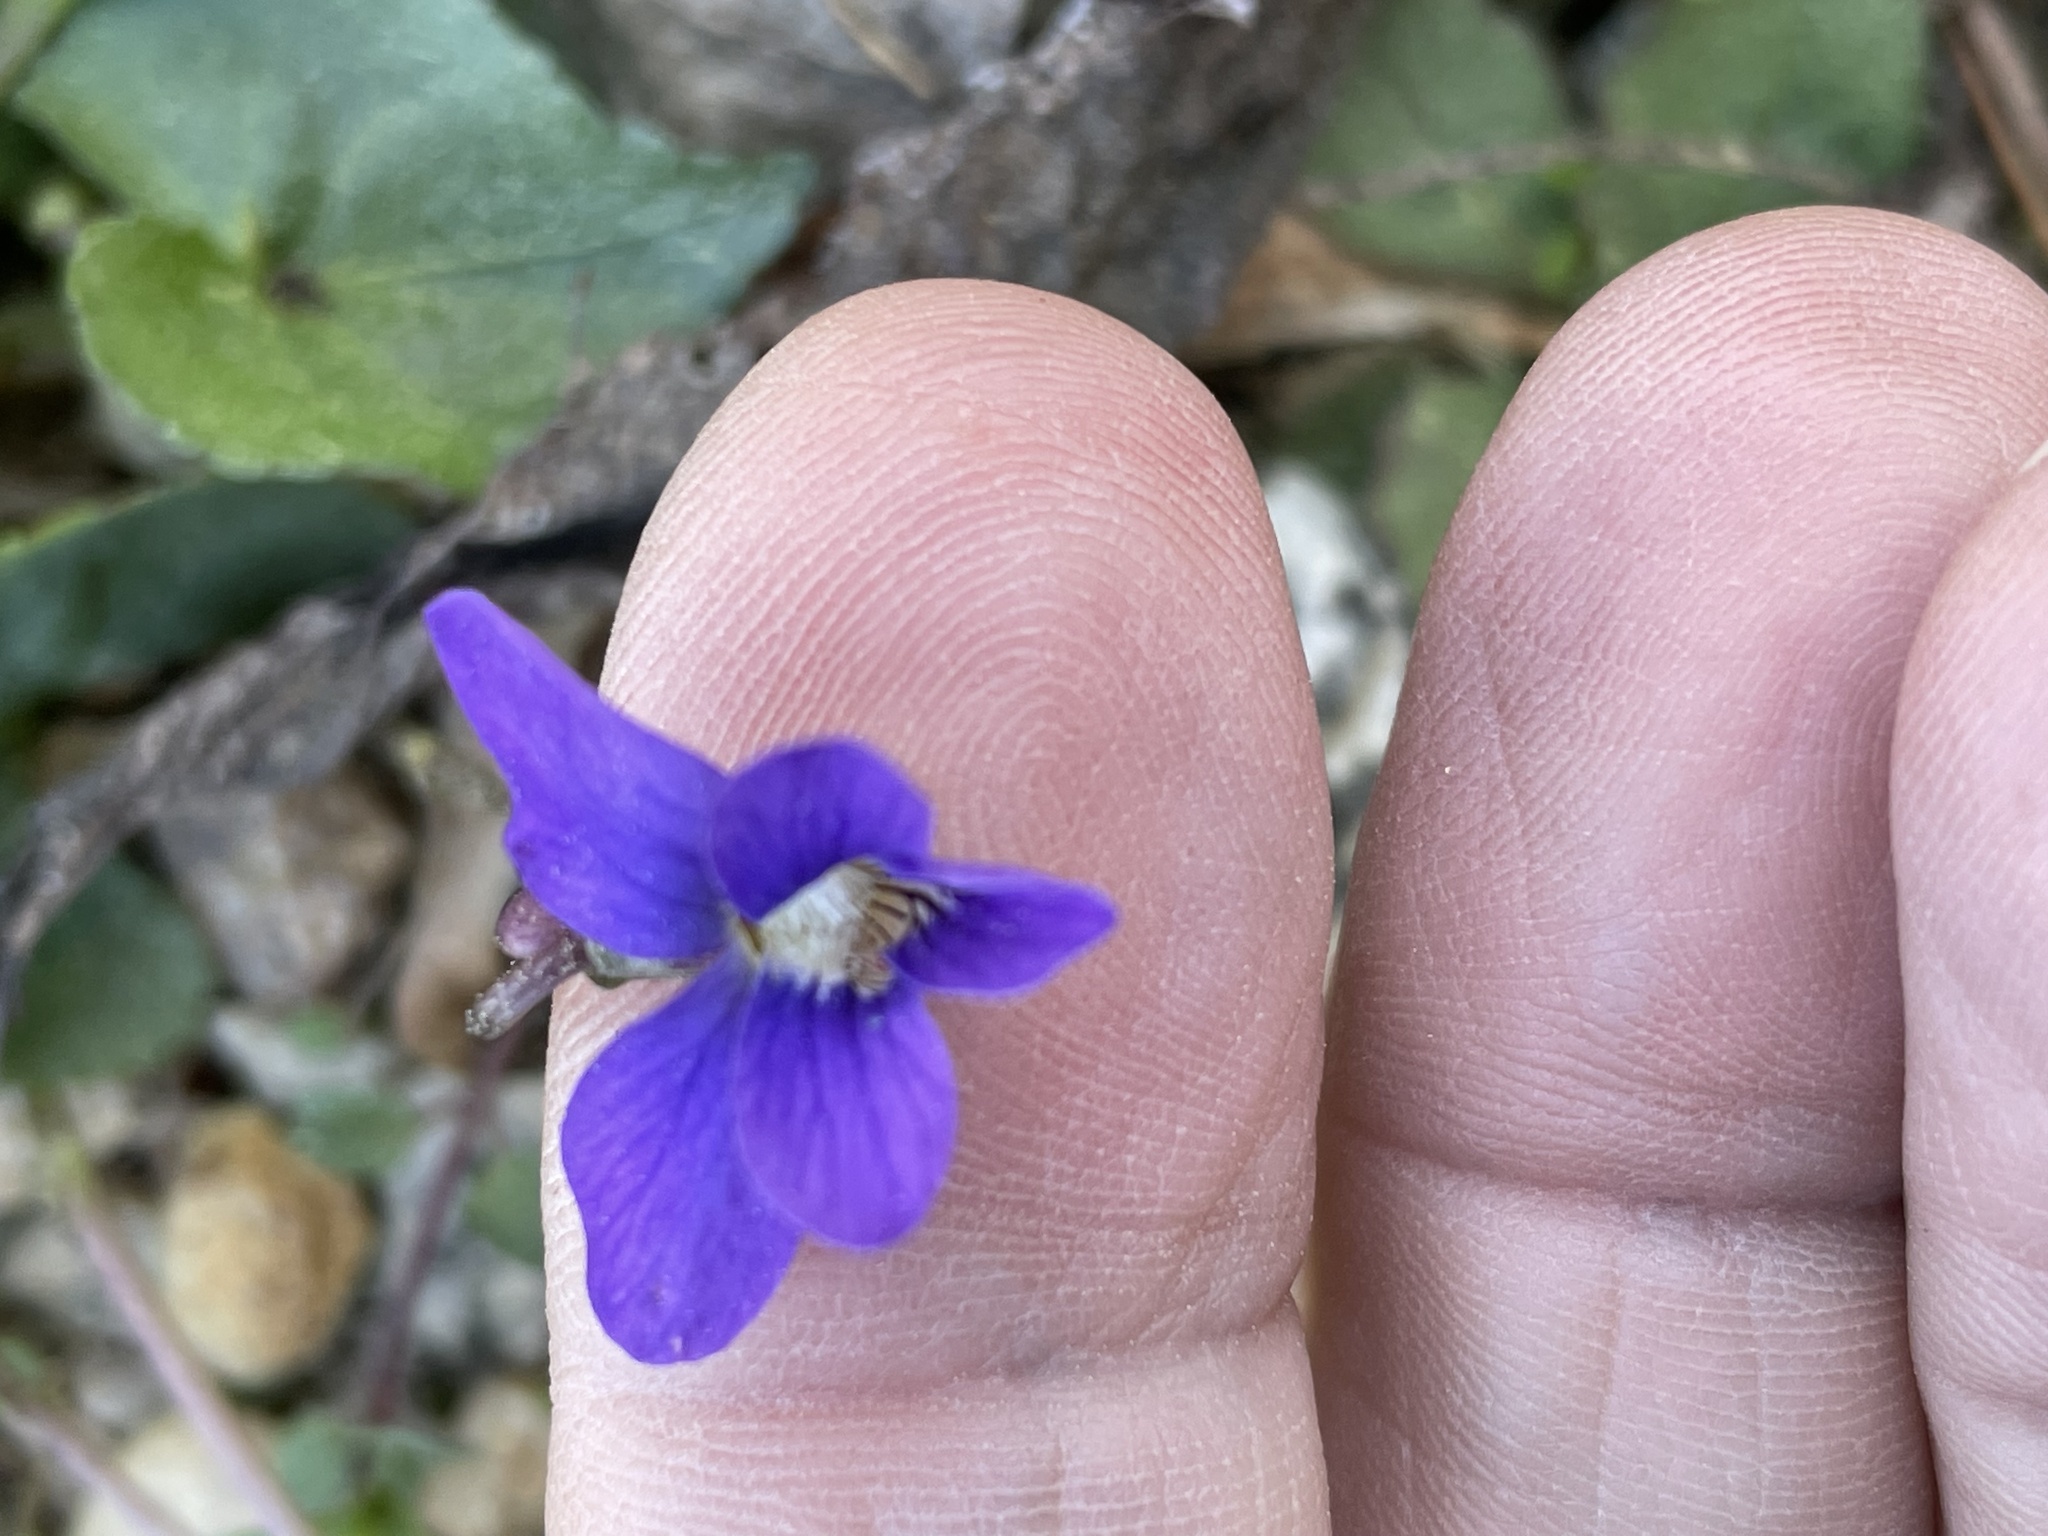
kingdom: Plantae
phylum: Tracheophyta
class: Magnoliopsida
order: Malpighiales
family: Violaceae
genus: Viola
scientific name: Viola sororia
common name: Dooryard violet
